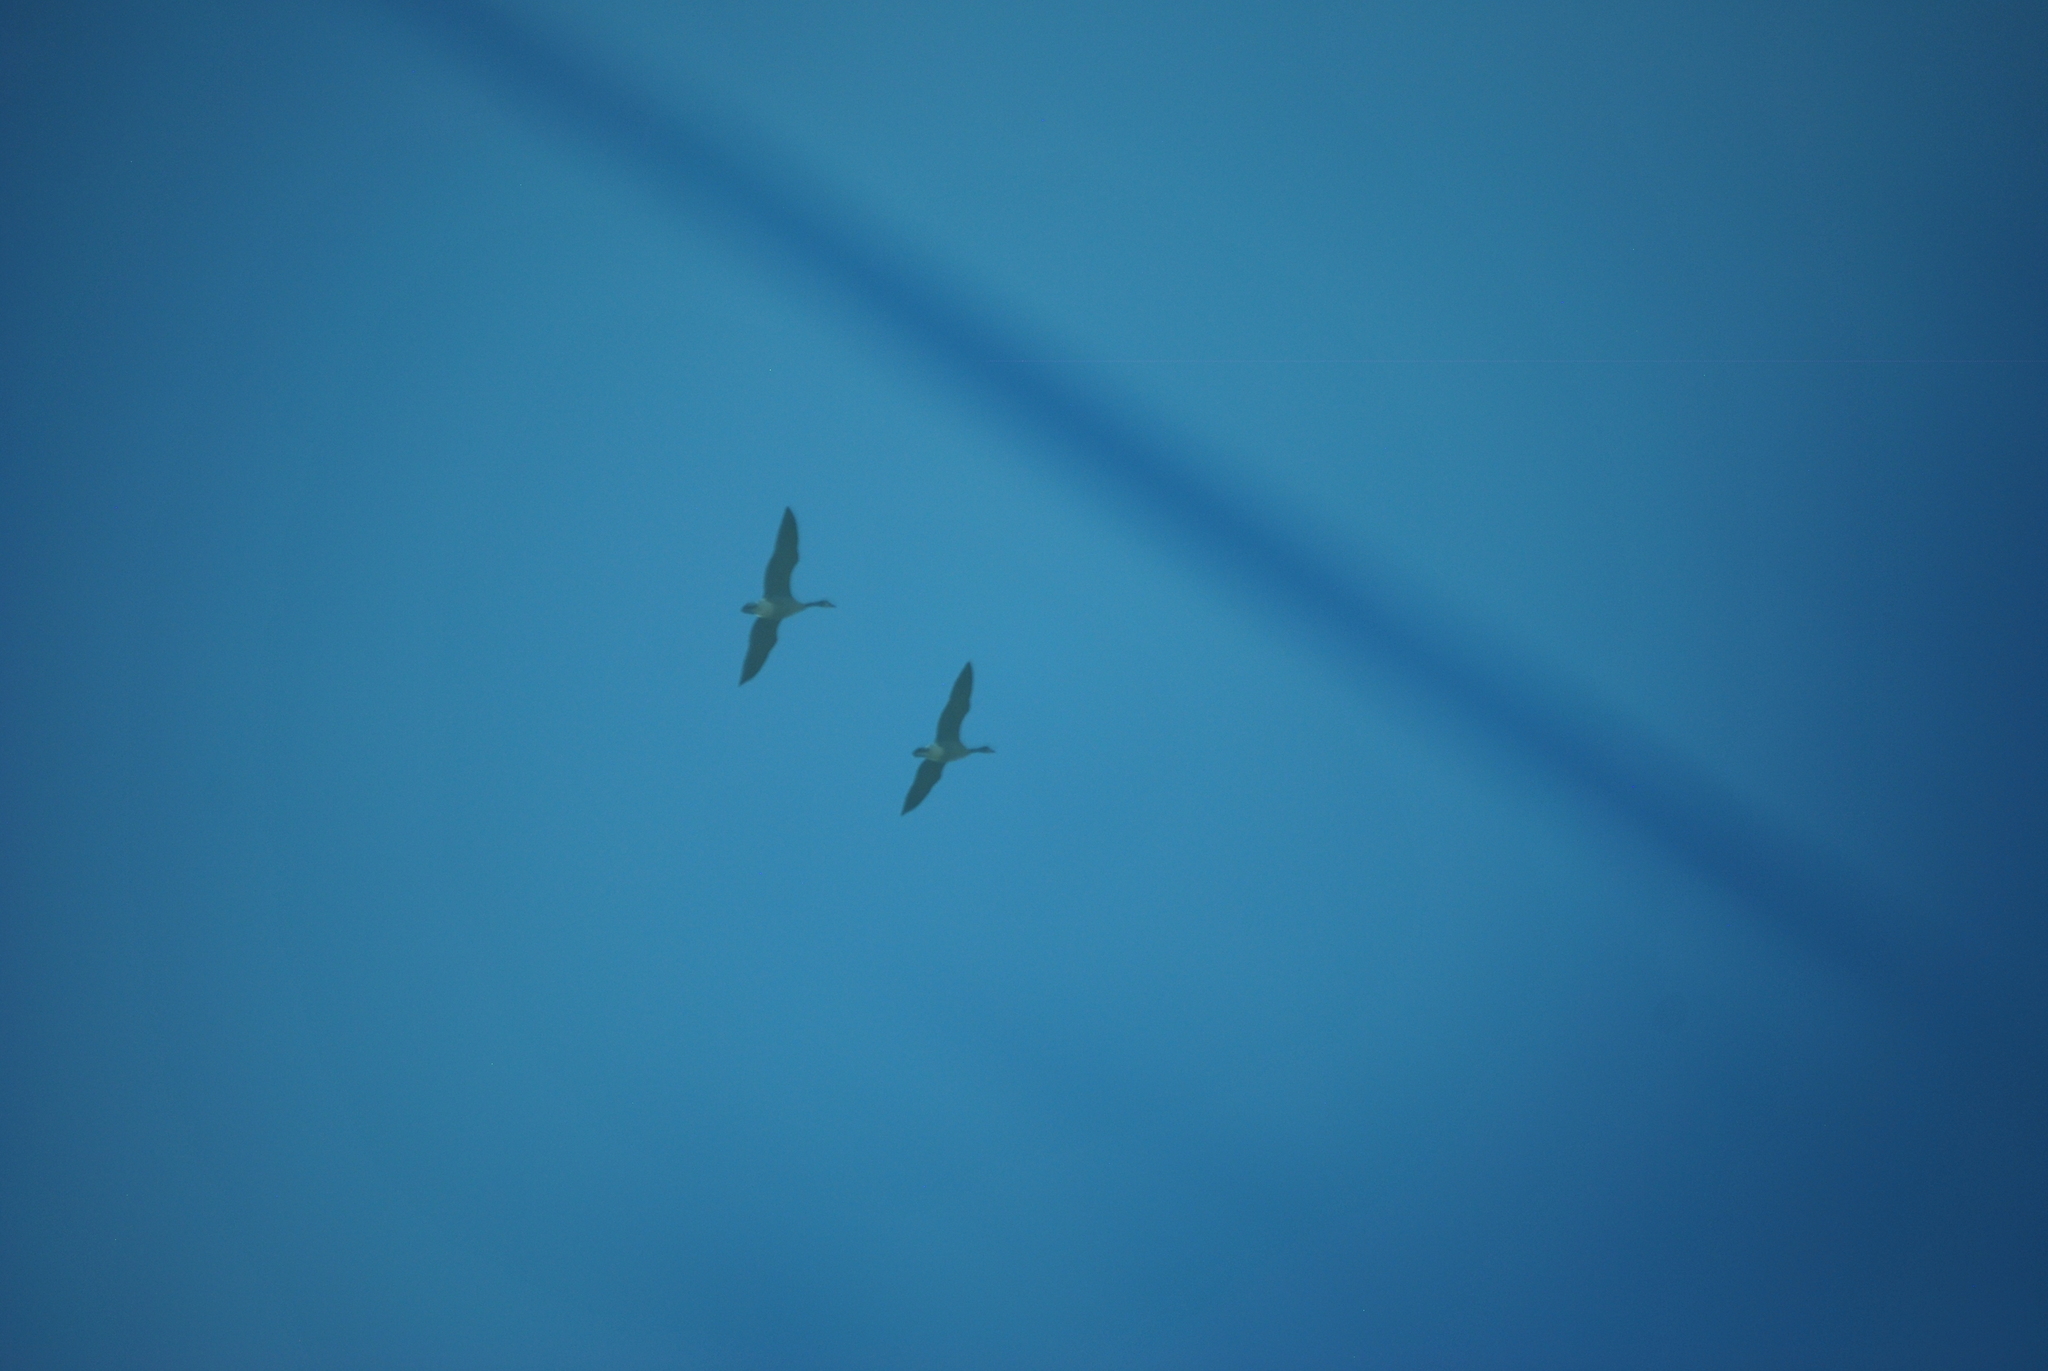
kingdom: Animalia
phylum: Chordata
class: Aves
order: Anseriformes
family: Anatidae
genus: Branta
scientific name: Branta canadensis
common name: Canada goose
